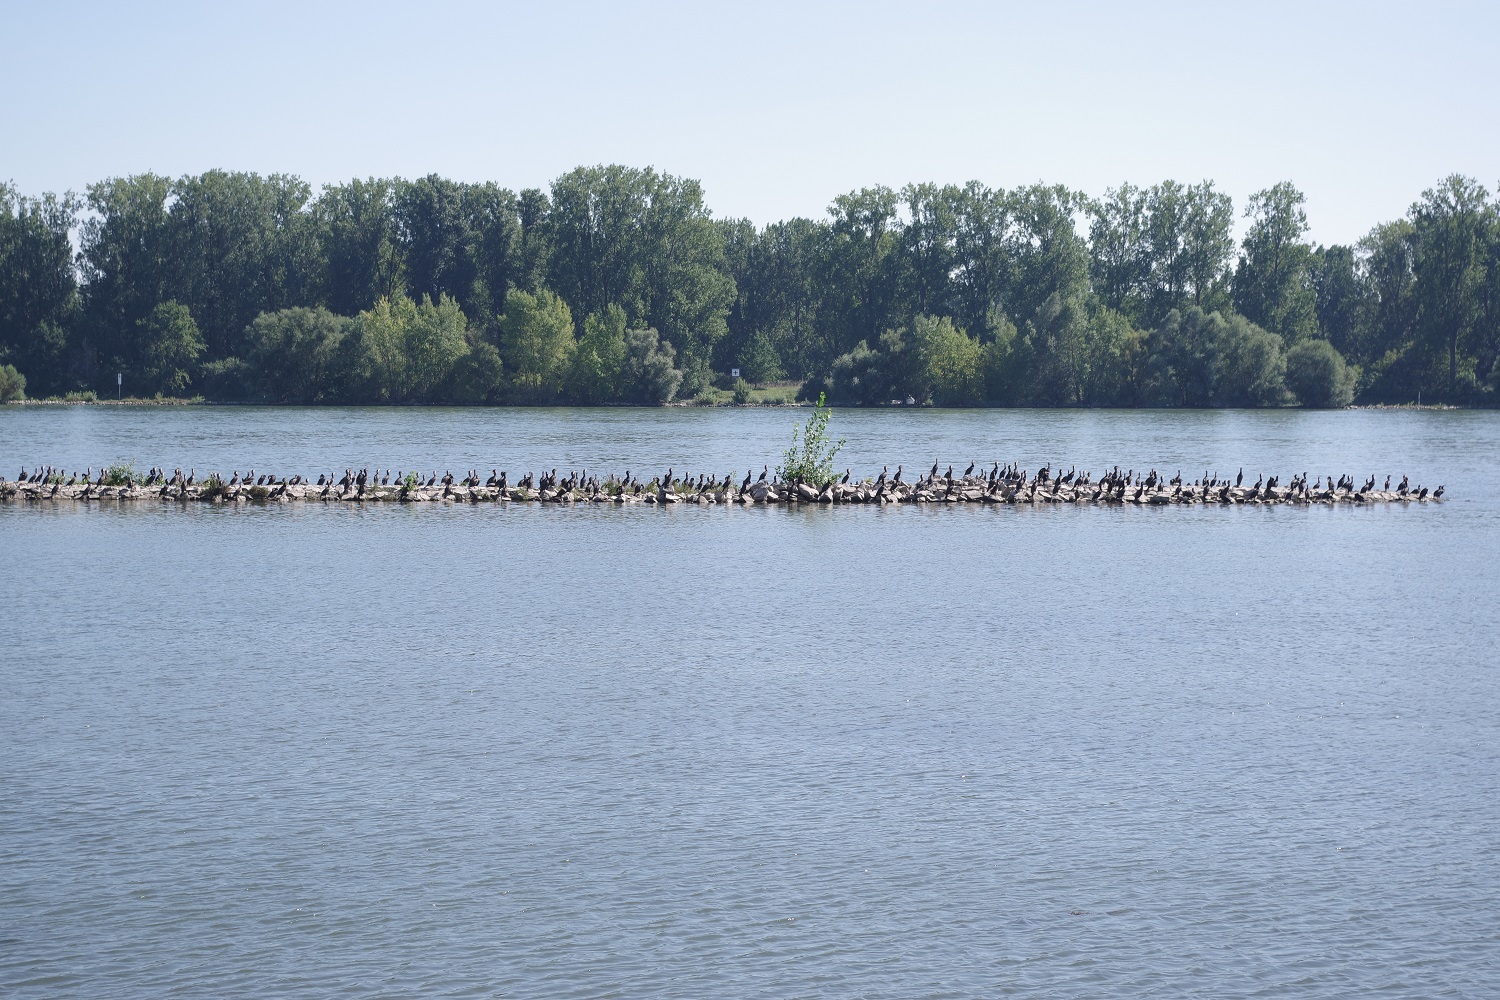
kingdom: Animalia
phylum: Chordata
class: Aves
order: Suliformes
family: Phalacrocoracidae
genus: Phalacrocorax
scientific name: Phalacrocorax carbo
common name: Great cormorant
